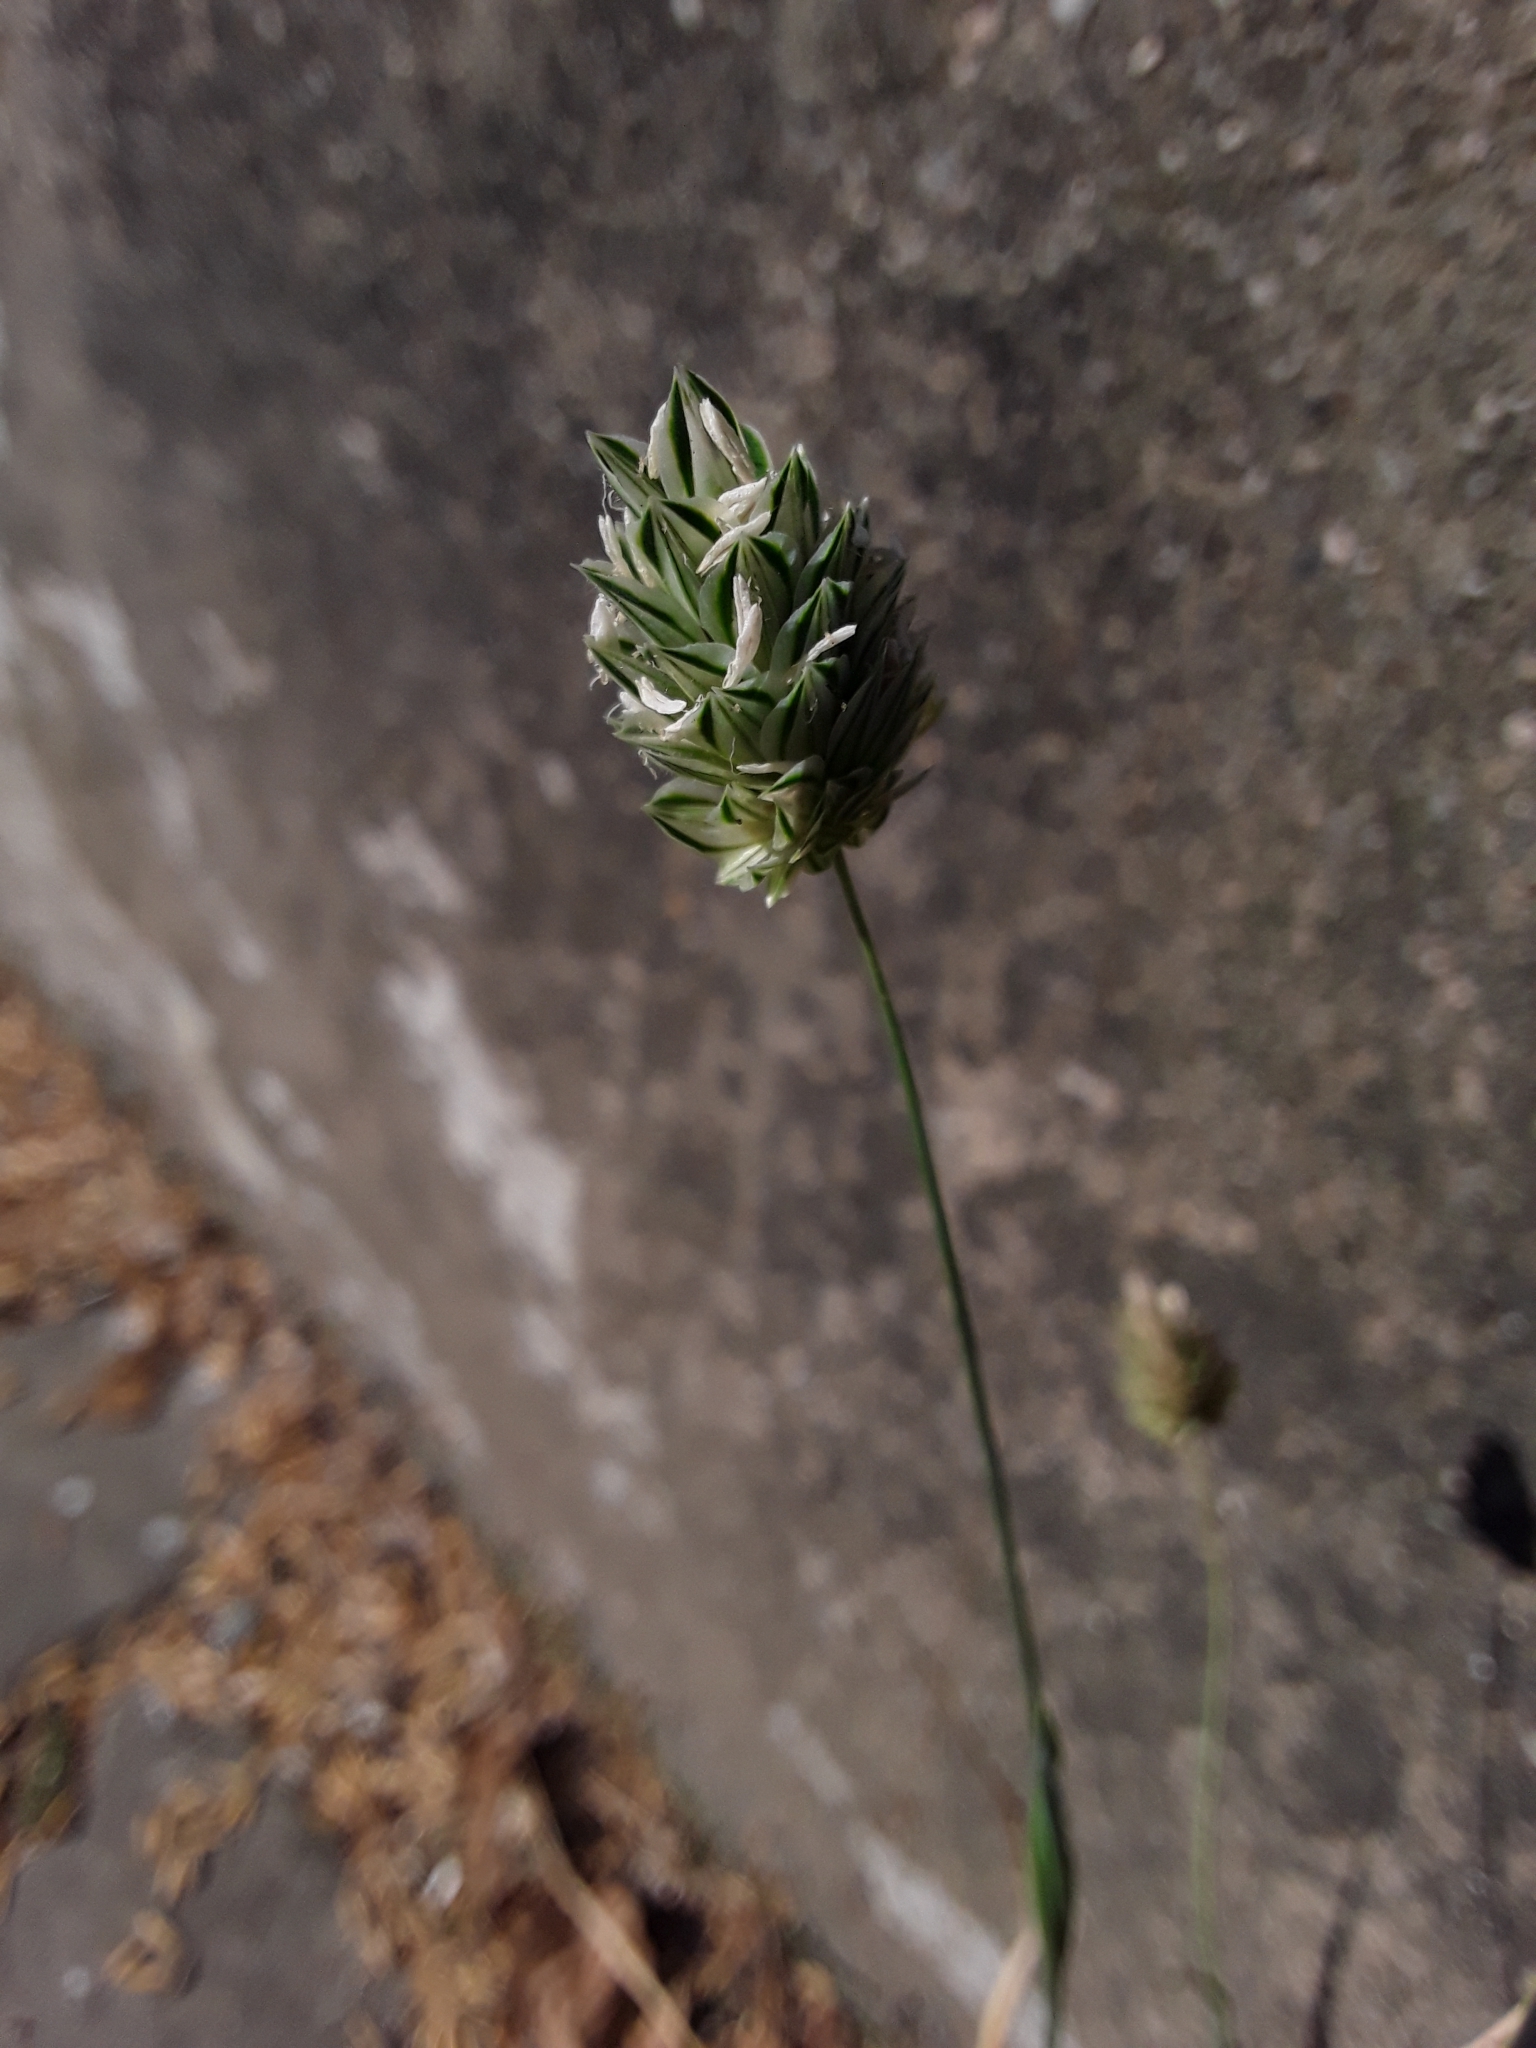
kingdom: Plantae
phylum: Tracheophyta
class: Liliopsida
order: Poales
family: Poaceae
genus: Phalaris
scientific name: Phalaris canariensis
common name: Annual canarygrass
